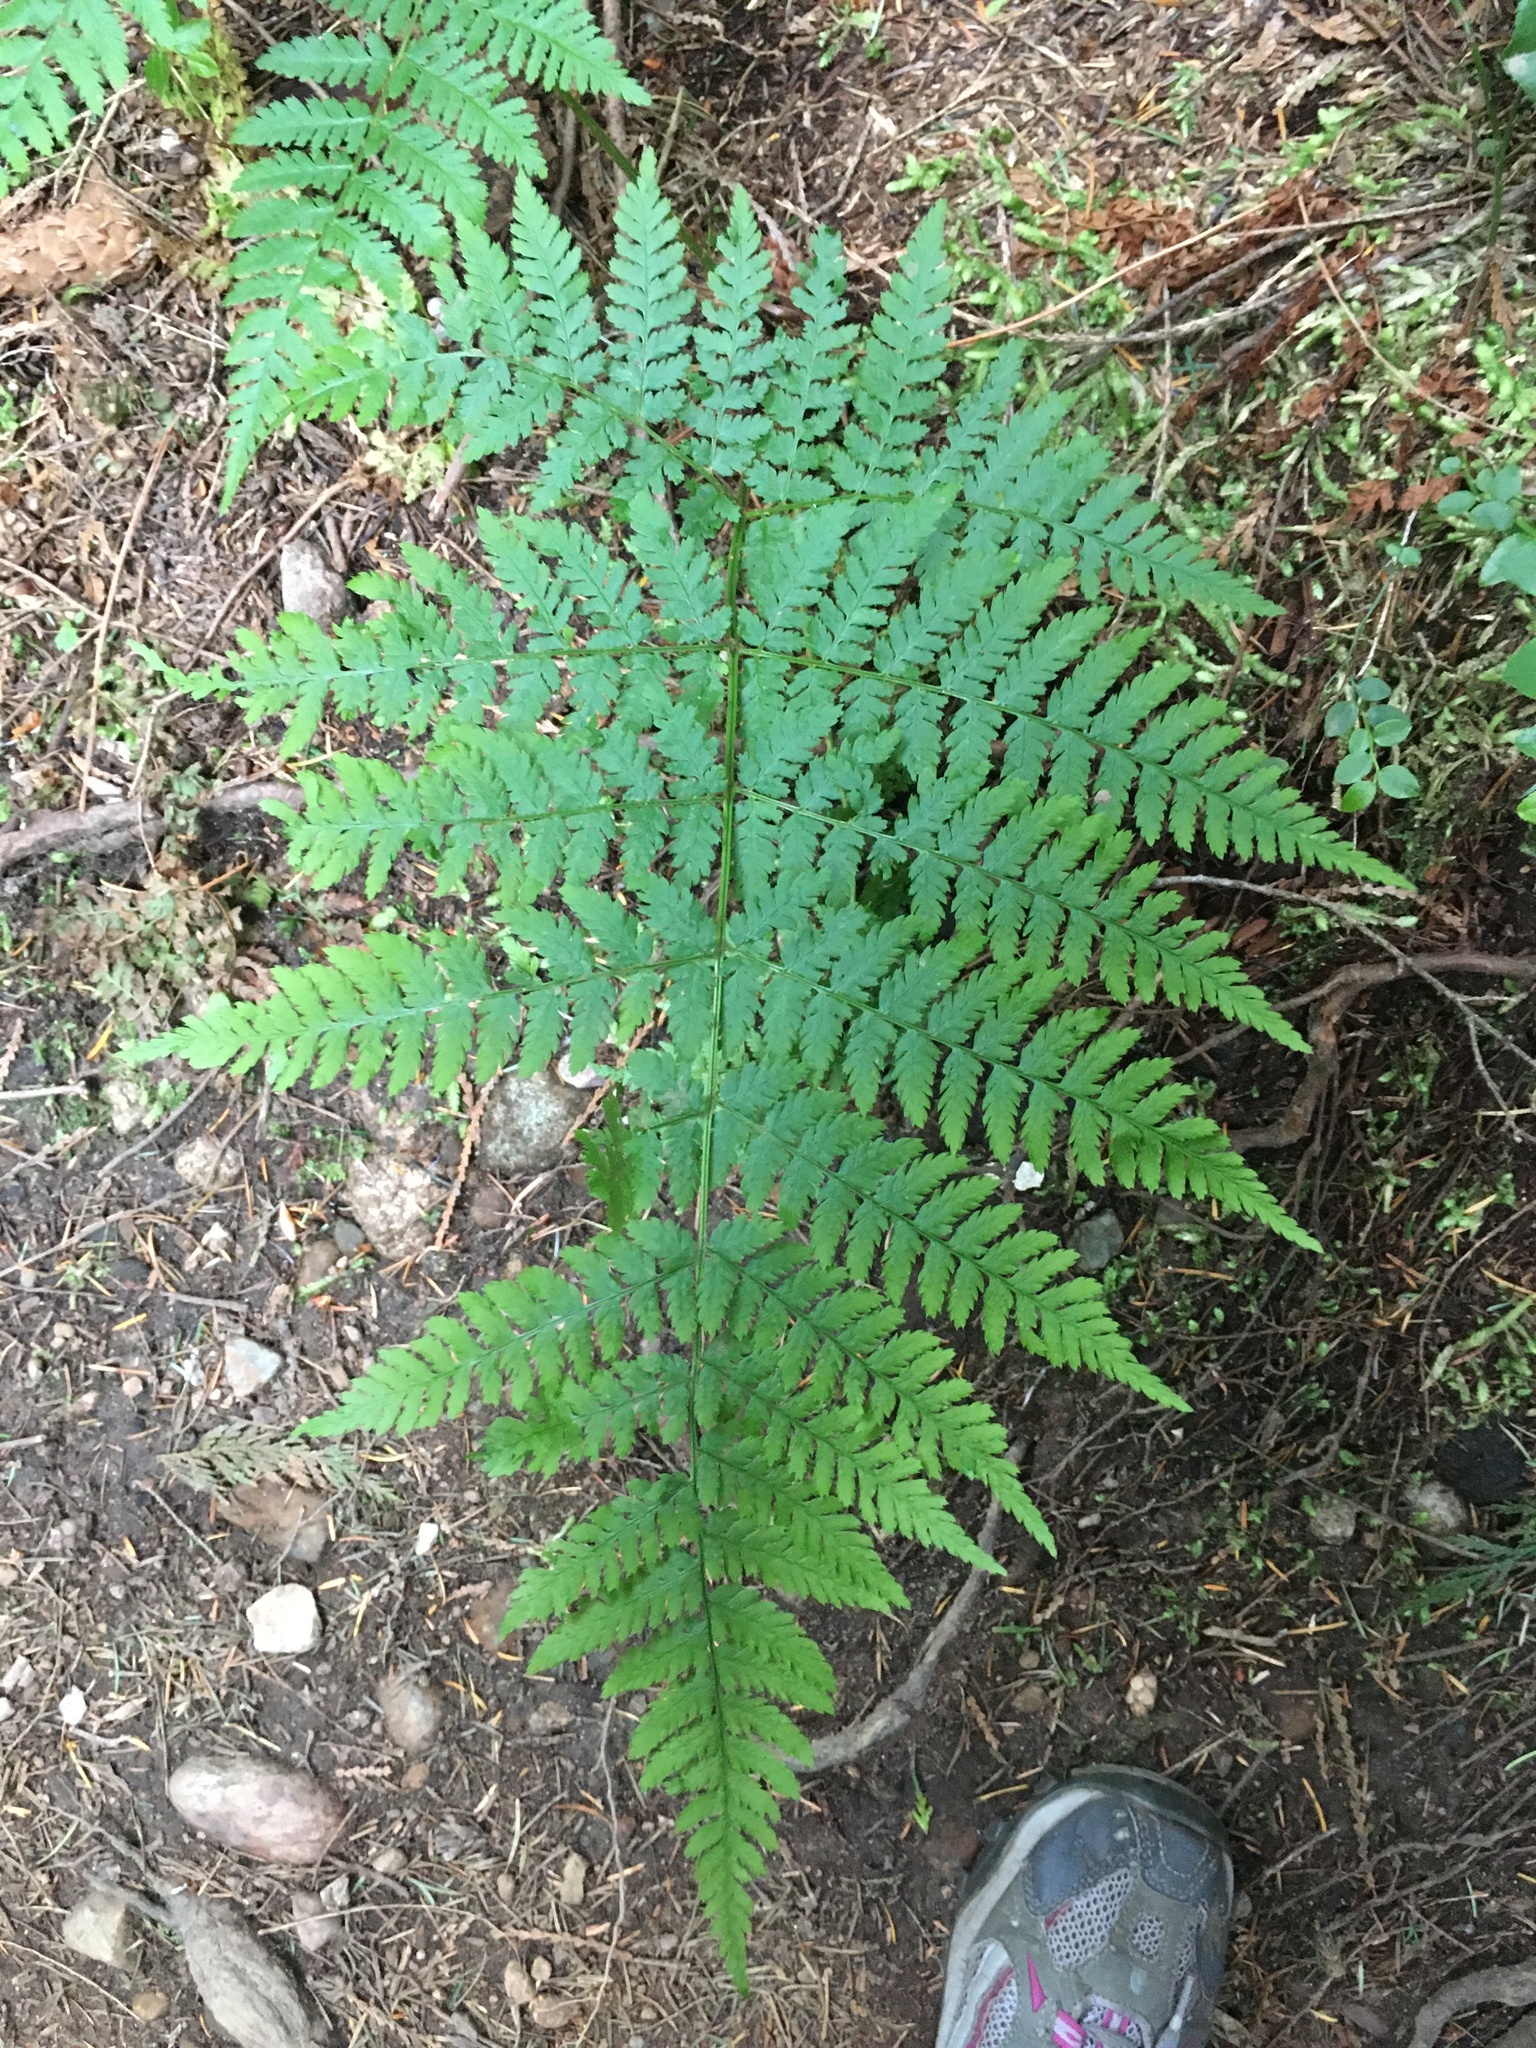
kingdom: Plantae
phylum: Tracheophyta
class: Polypodiopsida
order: Polypodiales
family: Dryopteridaceae
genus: Dryopteris
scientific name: Dryopteris expansa
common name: Northern buckler fern
